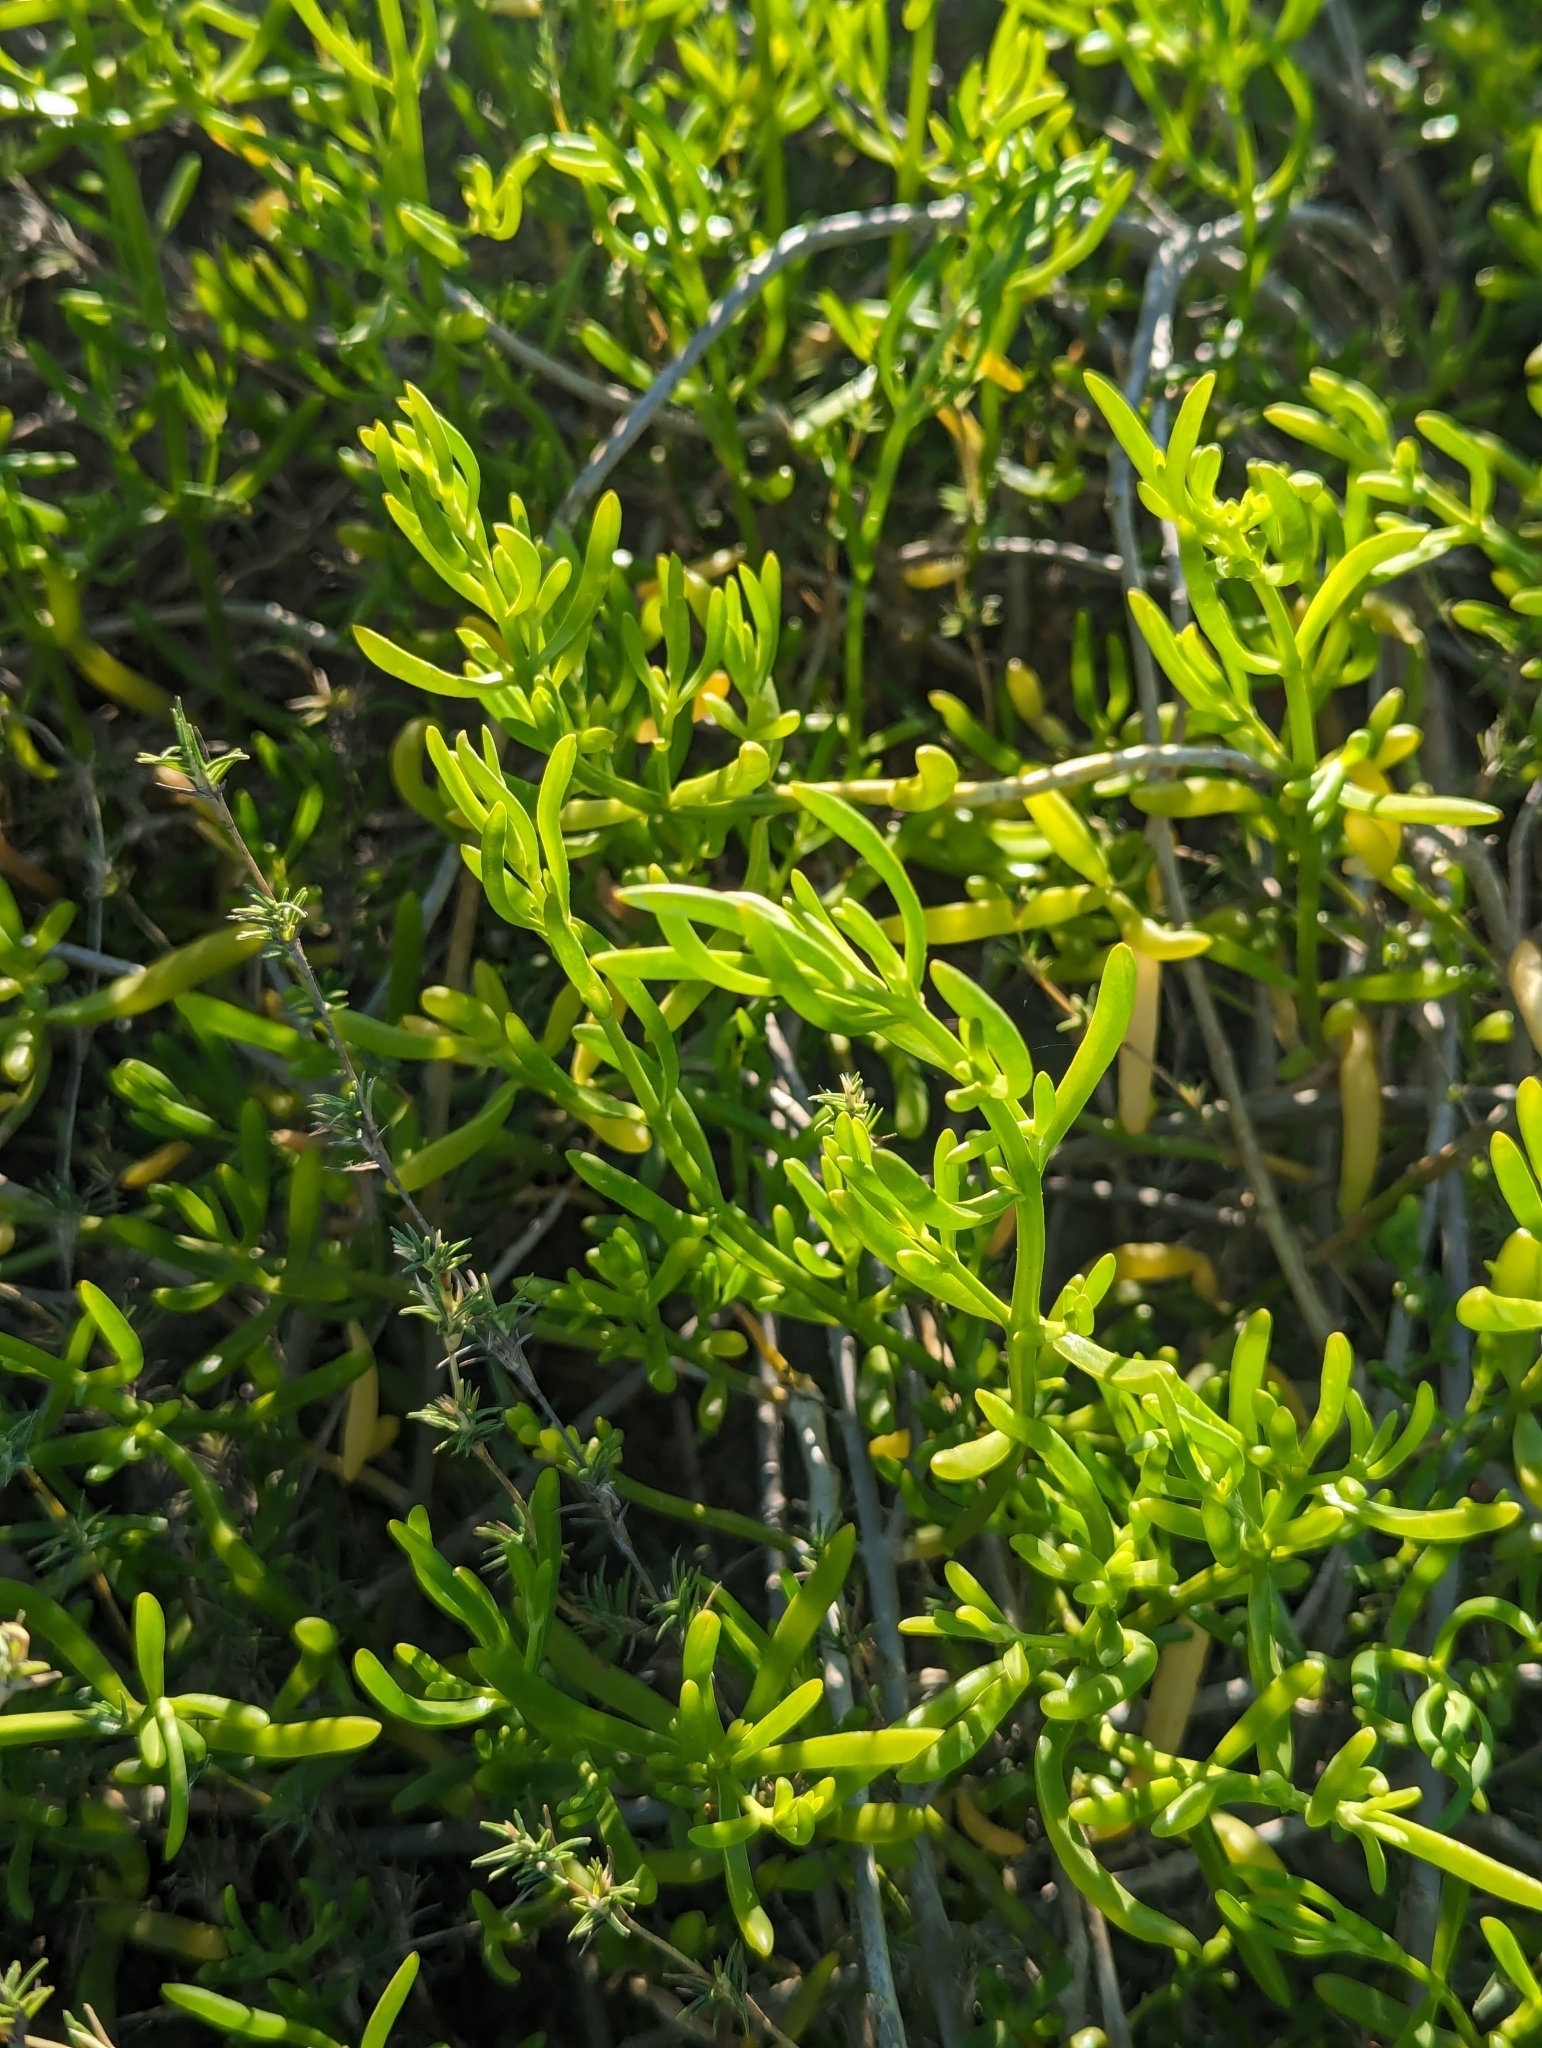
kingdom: Plantae
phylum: Tracheophyta
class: Magnoliopsida
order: Brassicales
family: Bataceae
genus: Batis
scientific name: Batis maritima
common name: Turtleweed
